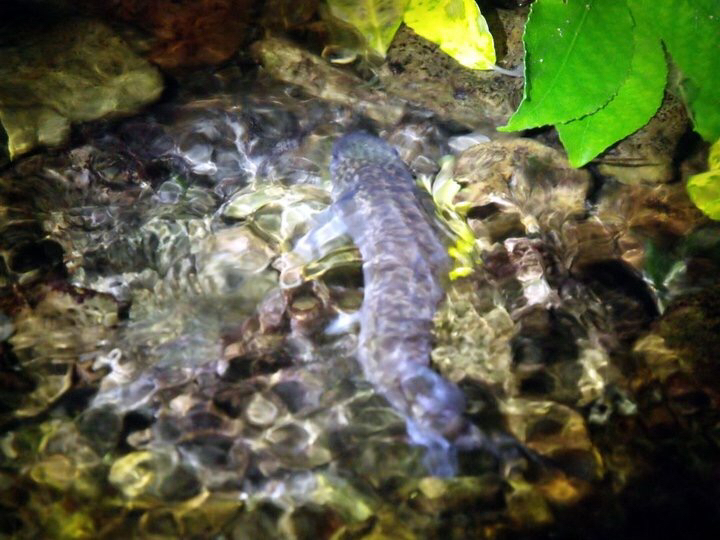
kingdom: Animalia
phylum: Chordata
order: Osmeriformes
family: Galaxiidae
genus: Galaxias
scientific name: Galaxias brevipinnis
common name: Koaro
